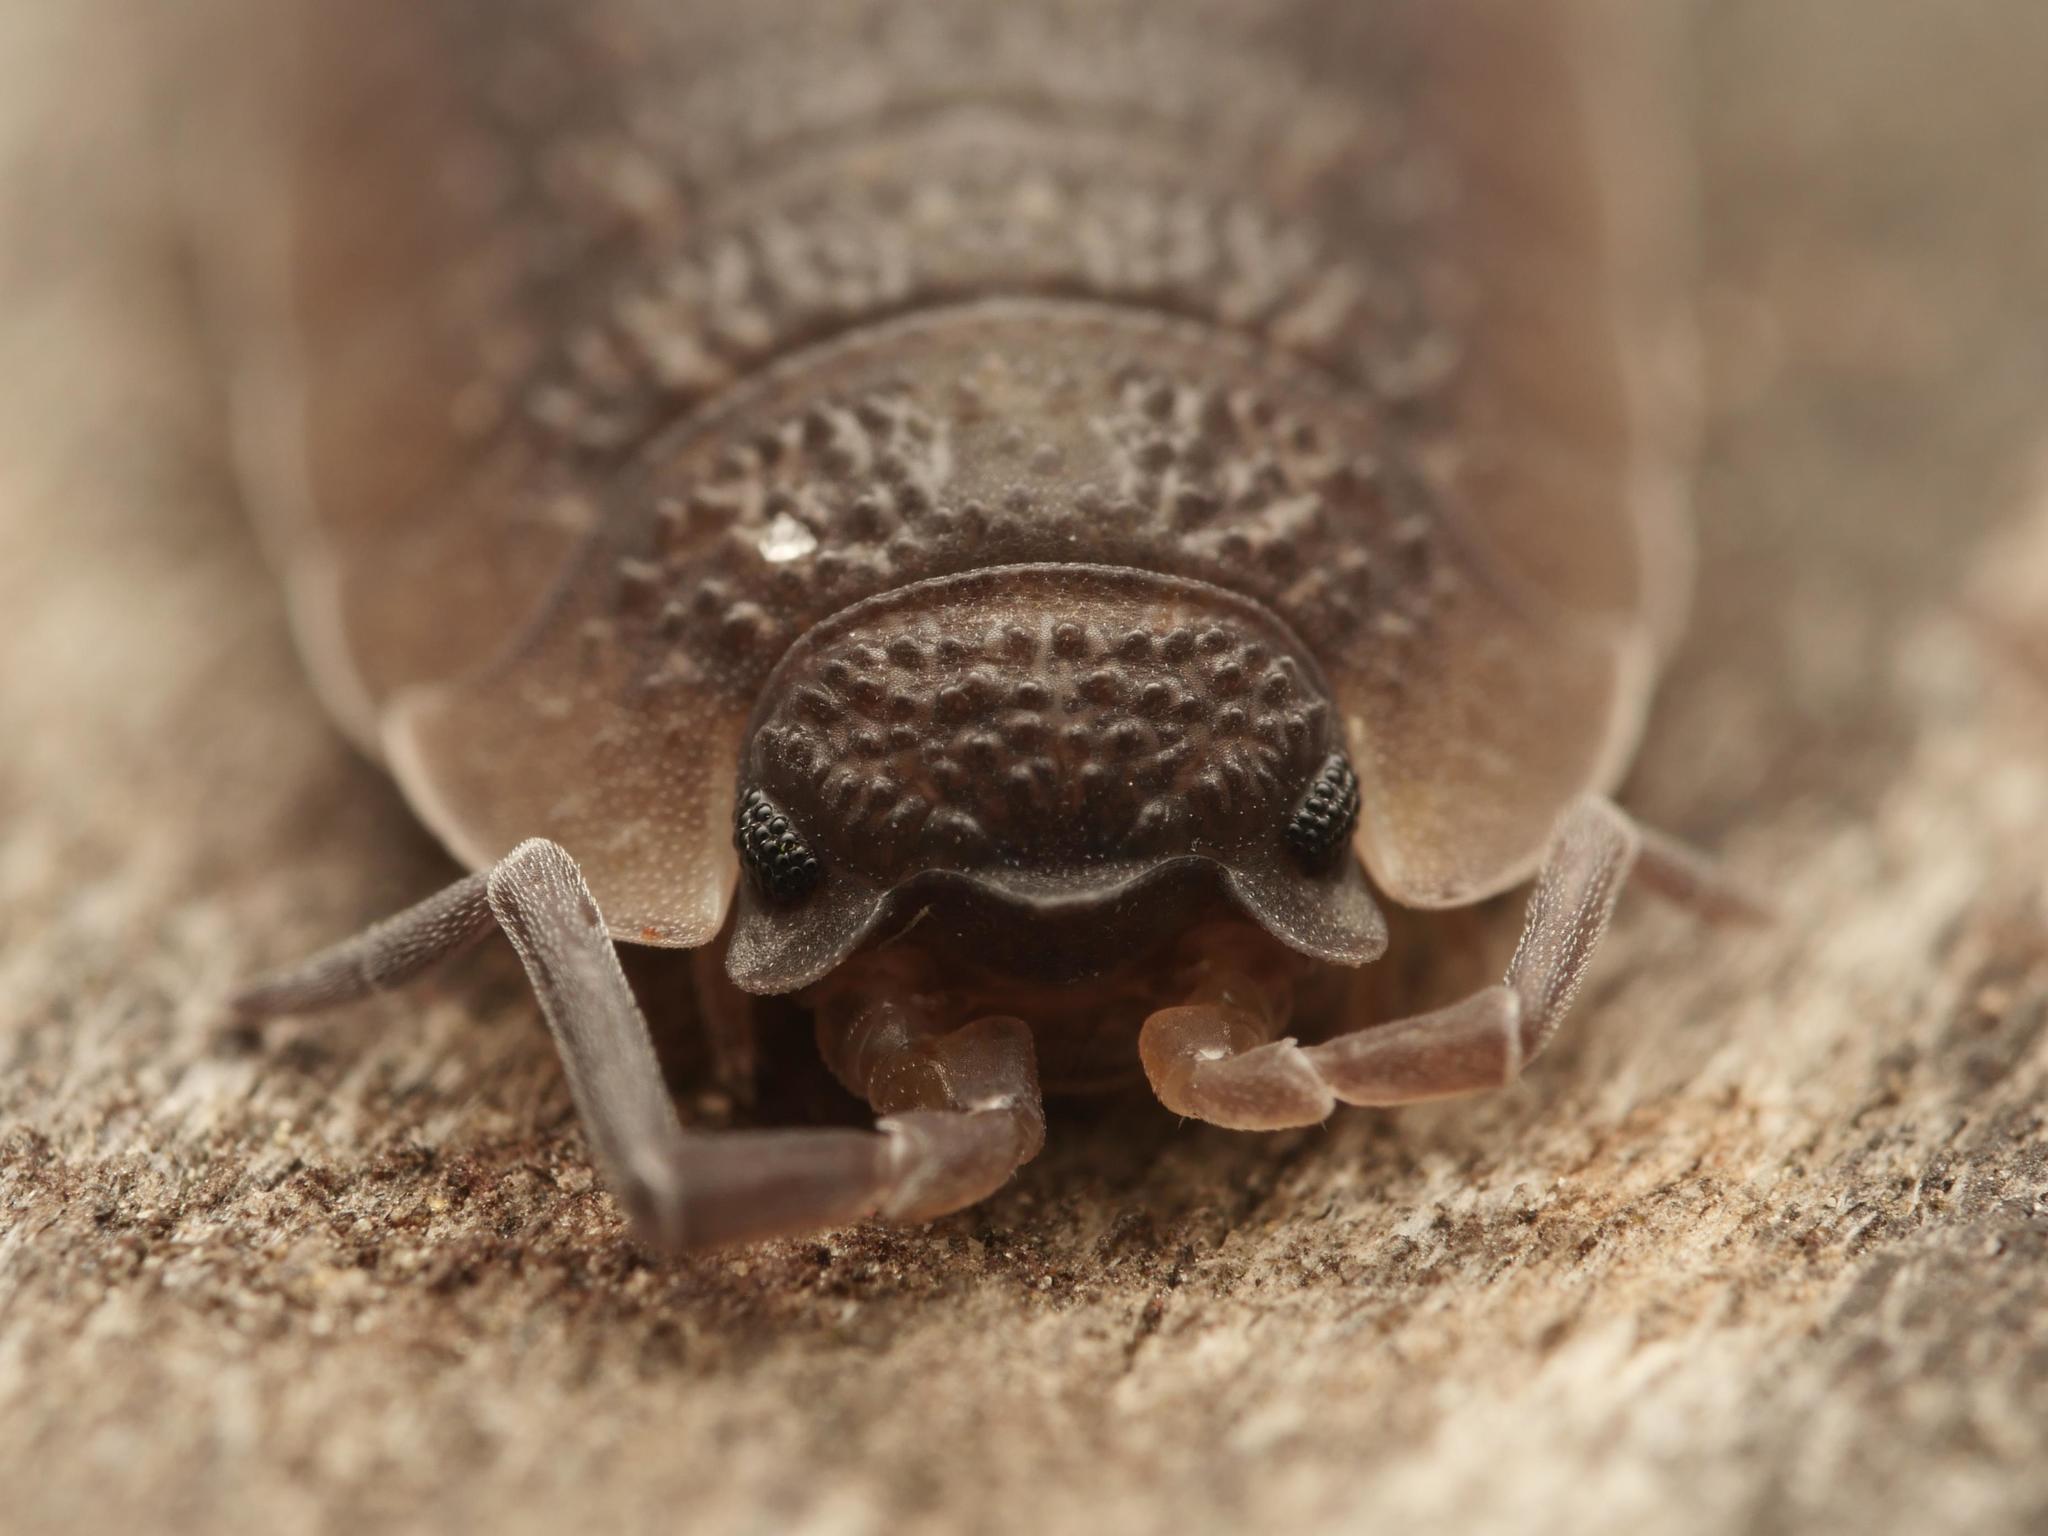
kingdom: Animalia
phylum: Arthropoda
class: Malacostraca
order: Isopoda
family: Porcellionidae
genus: Porcellio
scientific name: Porcellio scaber
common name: Common rough woodlouse
